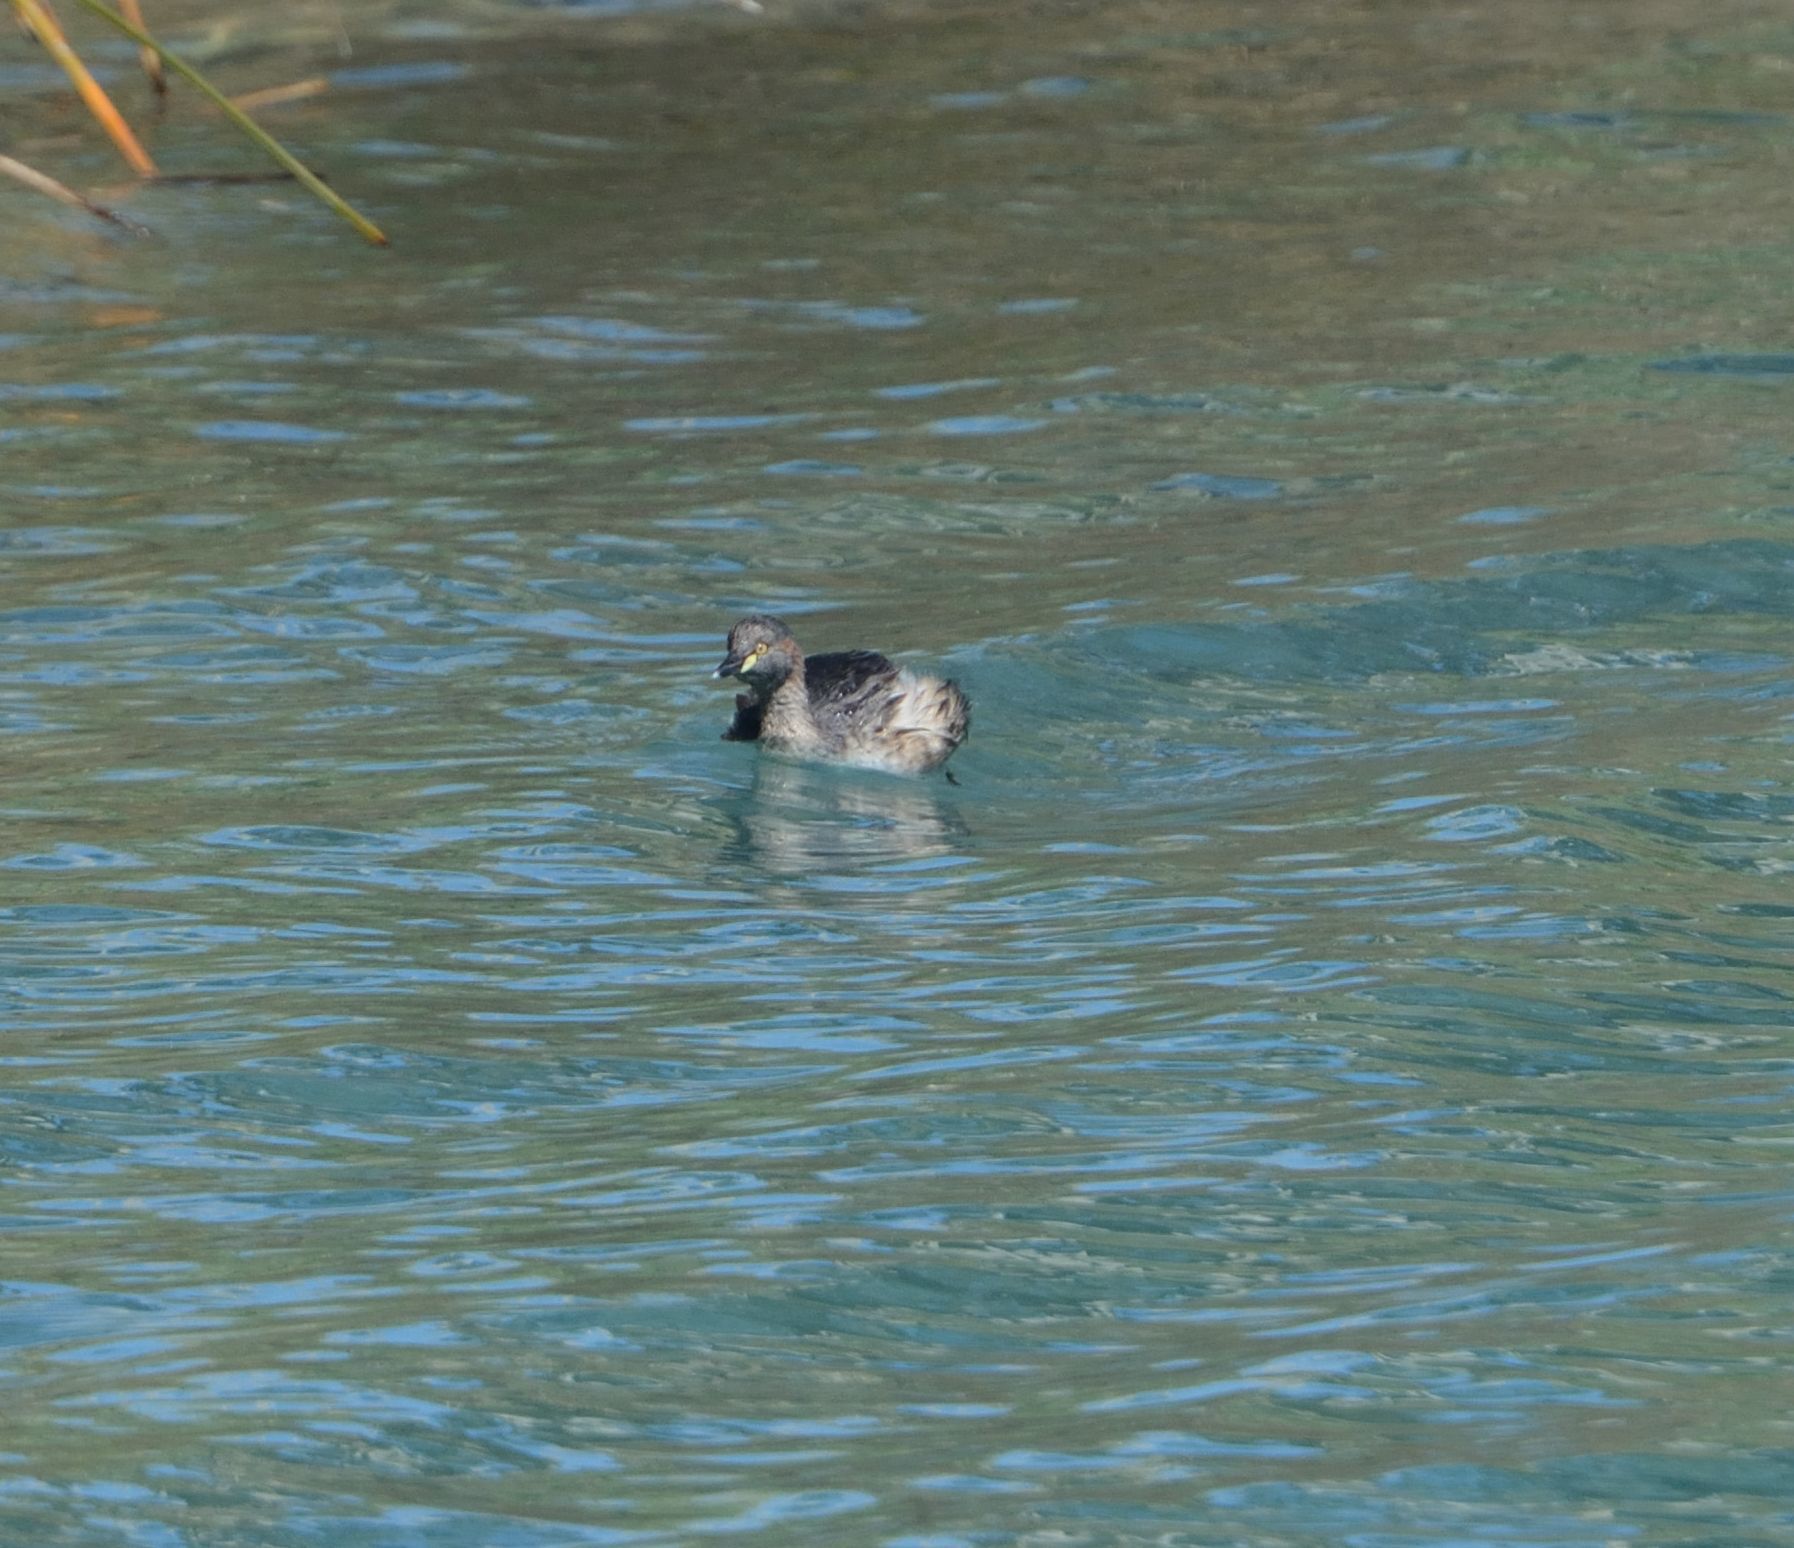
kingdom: Animalia
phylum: Chordata
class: Aves
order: Podicipediformes
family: Podicipedidae
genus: Tachybaptus
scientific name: Tachybaptus novaehollandiae
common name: Australasian grebe
